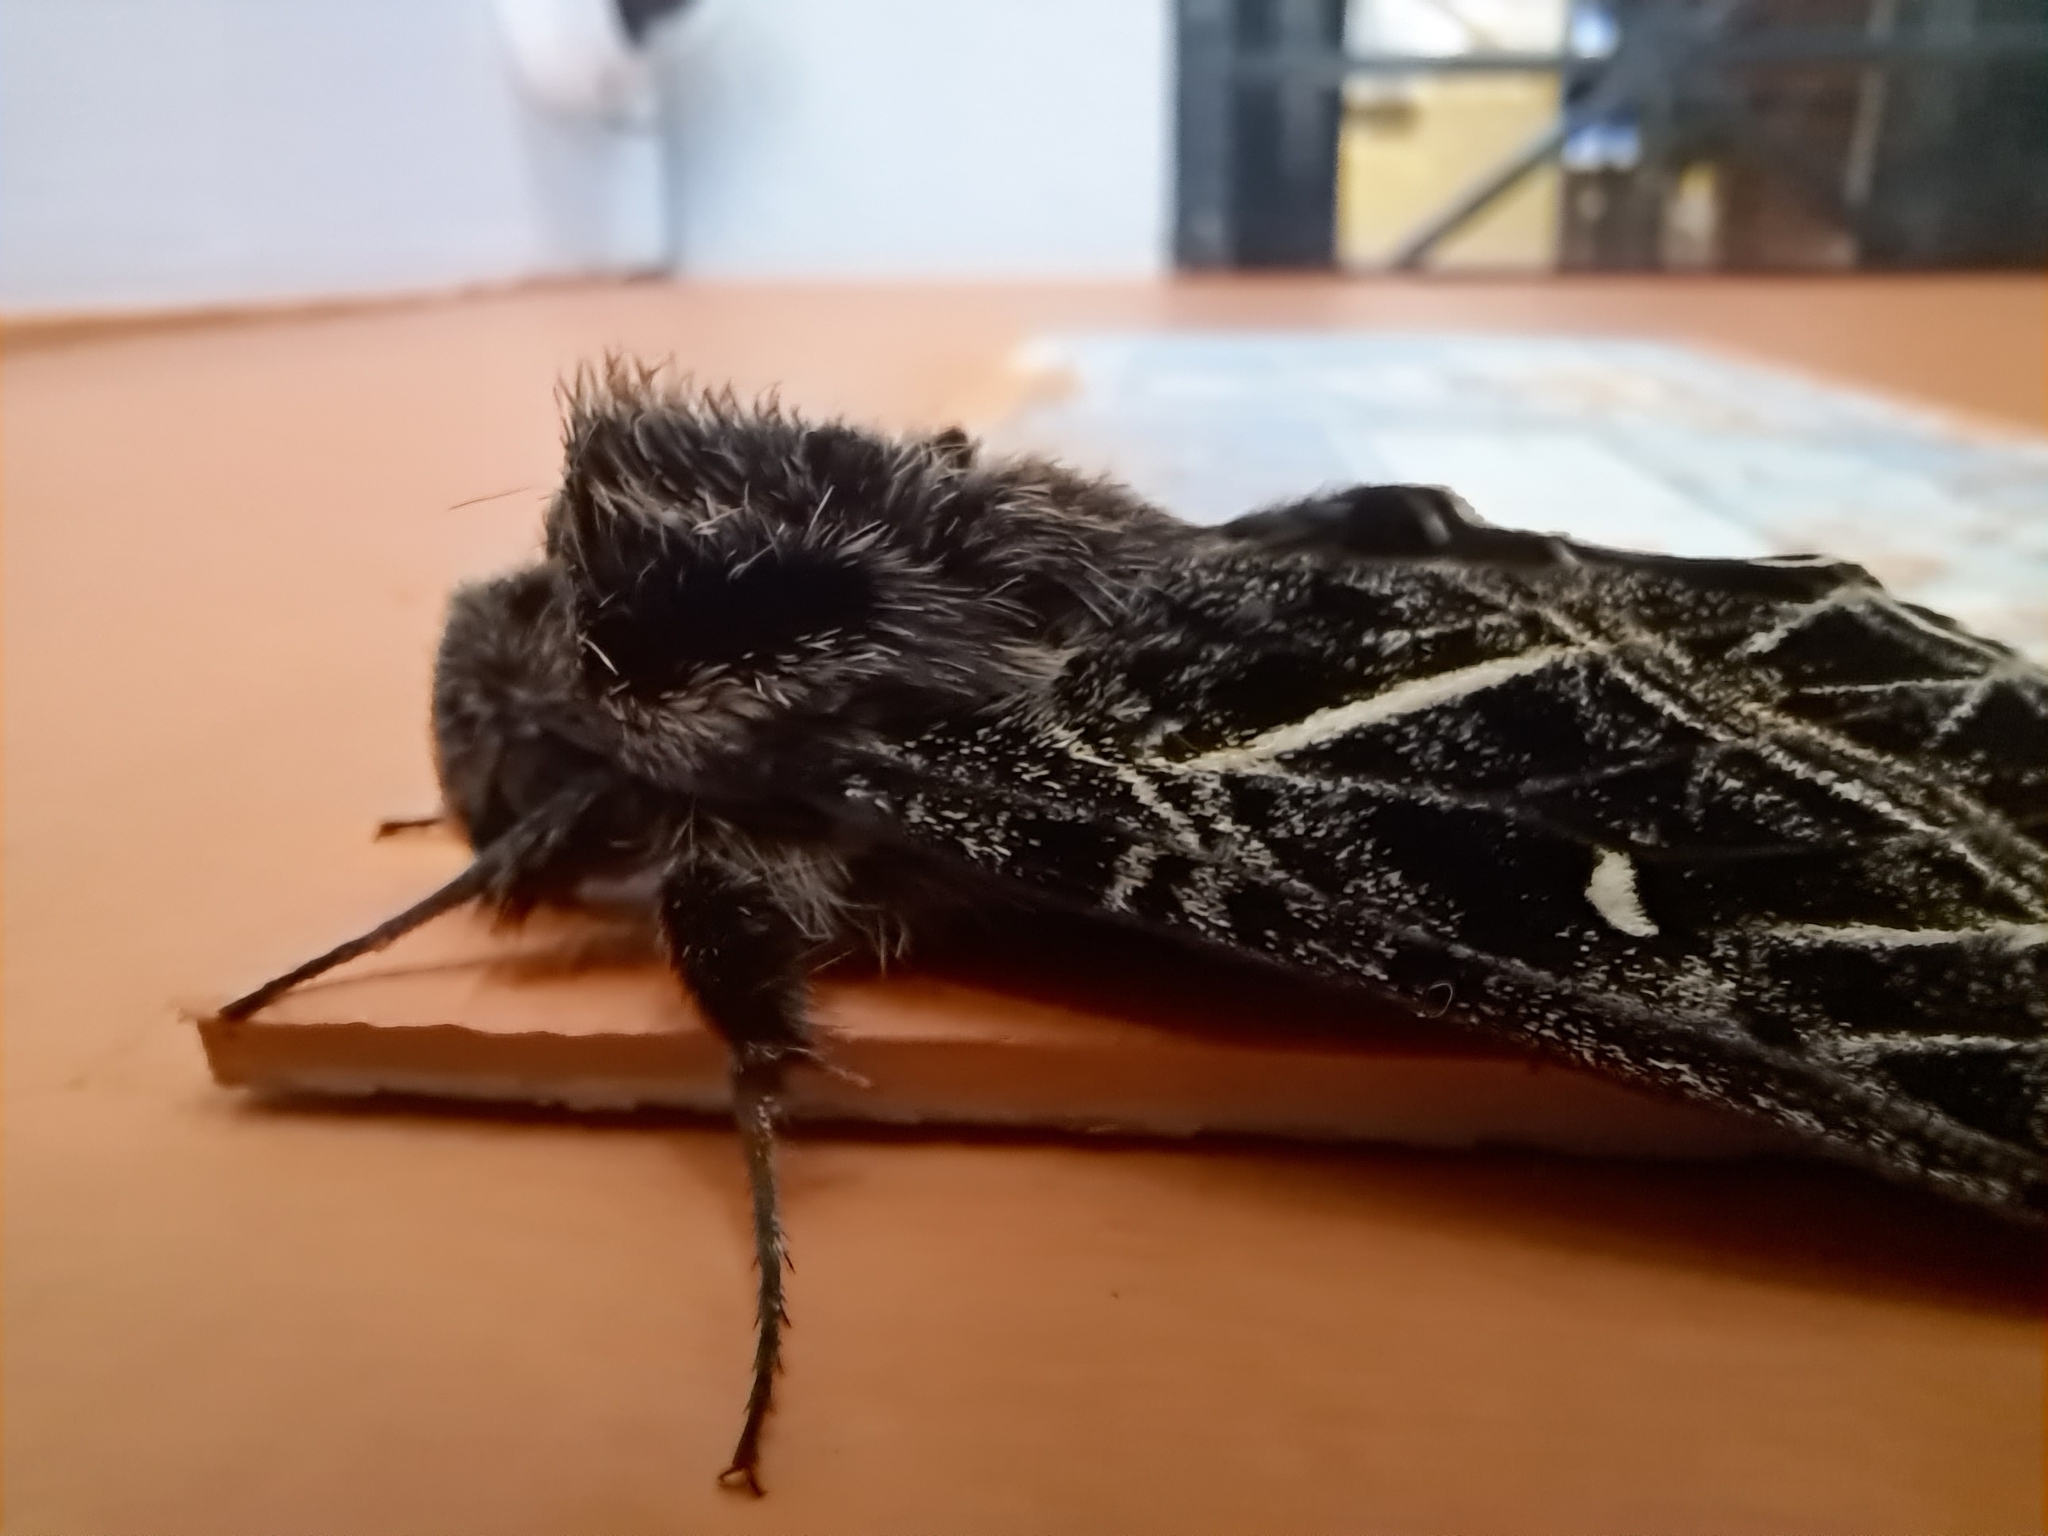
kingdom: Animalia
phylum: Arthropoda
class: Insecta
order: Lepidoptera
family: Sphingidae
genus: Euryglottis
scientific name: Euryglottis aper
